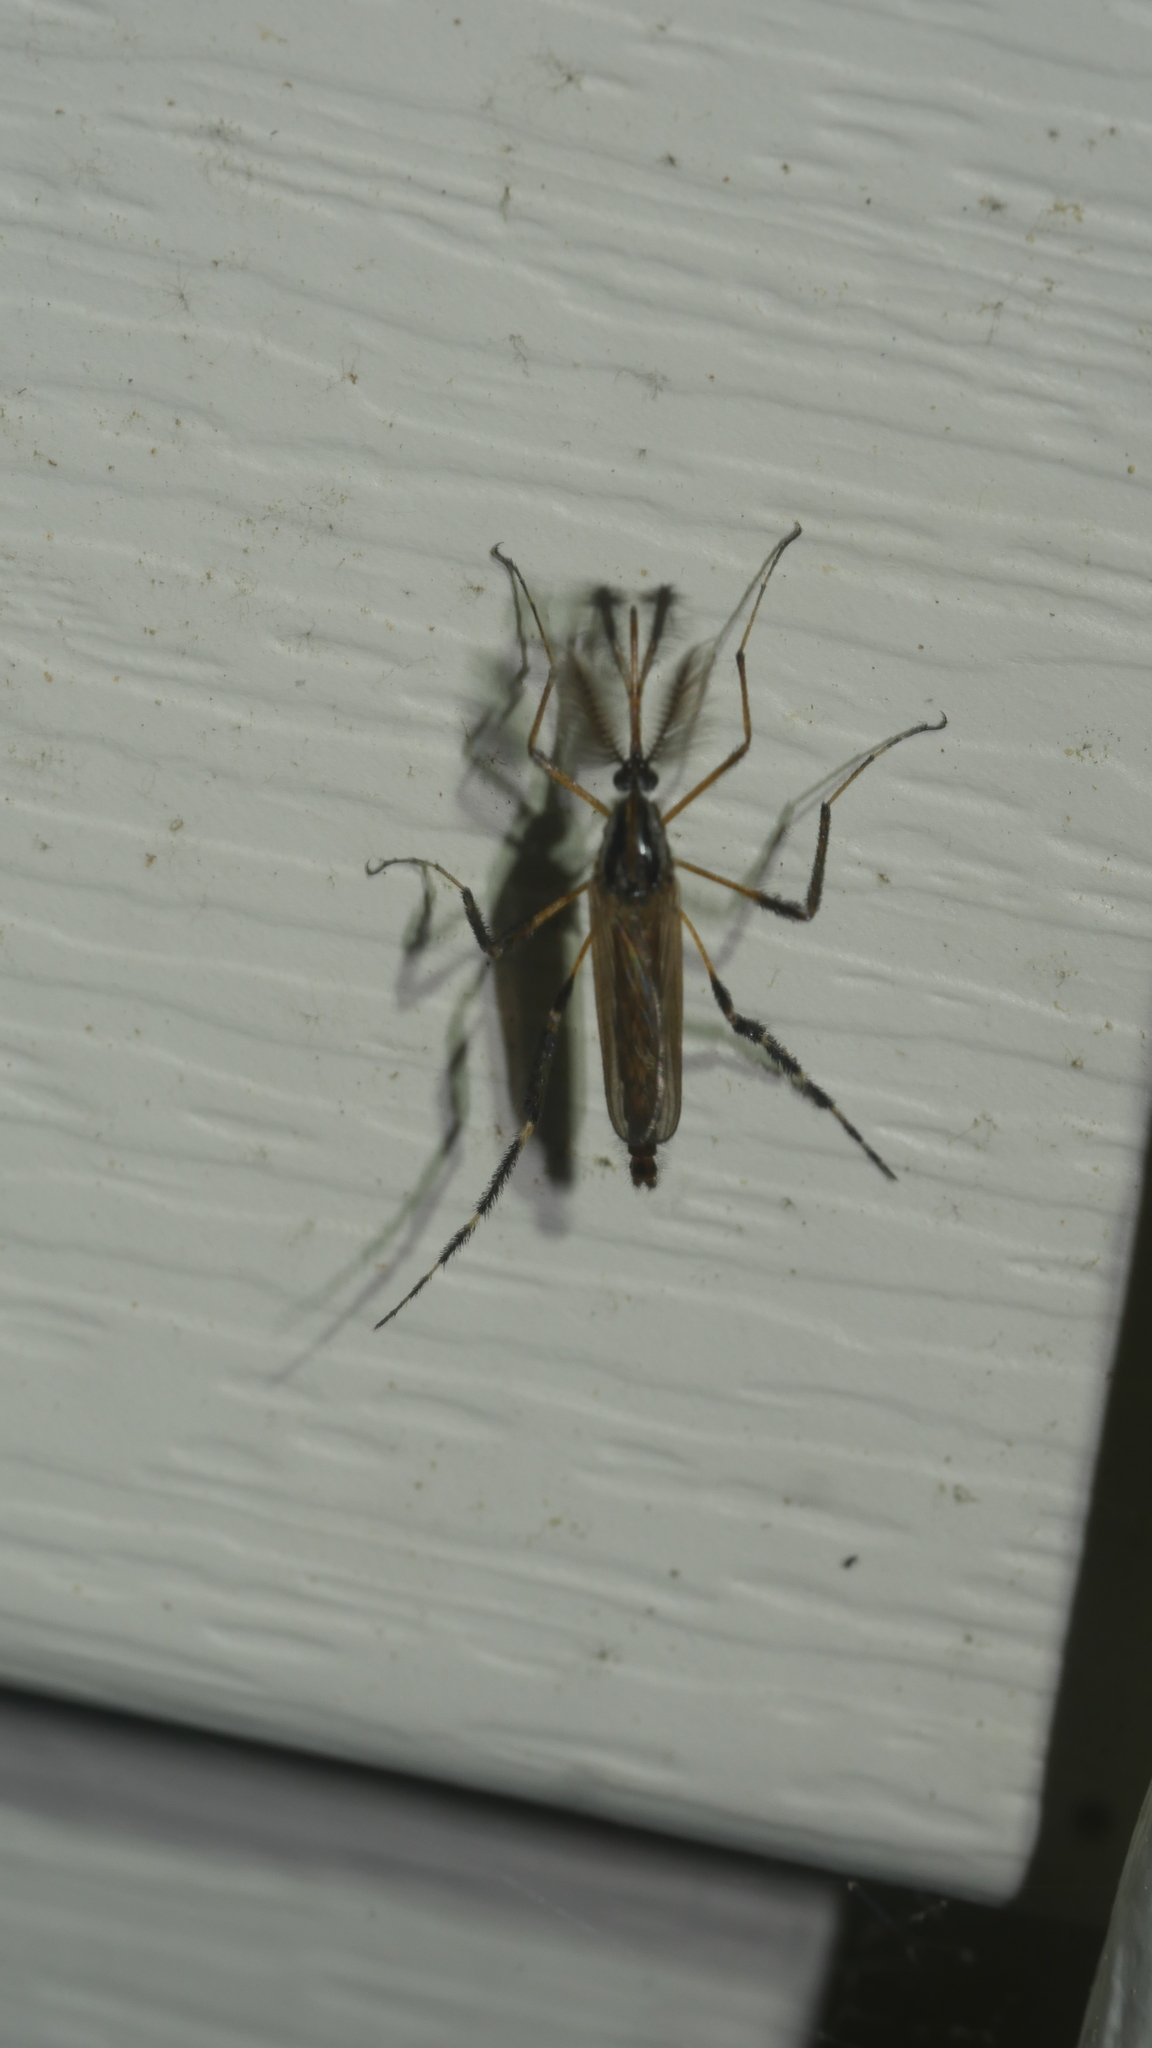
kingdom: Animalia
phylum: Arthropoda
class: Insecta
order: Diptera
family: Culicidae
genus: Psorophora
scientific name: Psorophora ciliata
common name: Gallinipper
